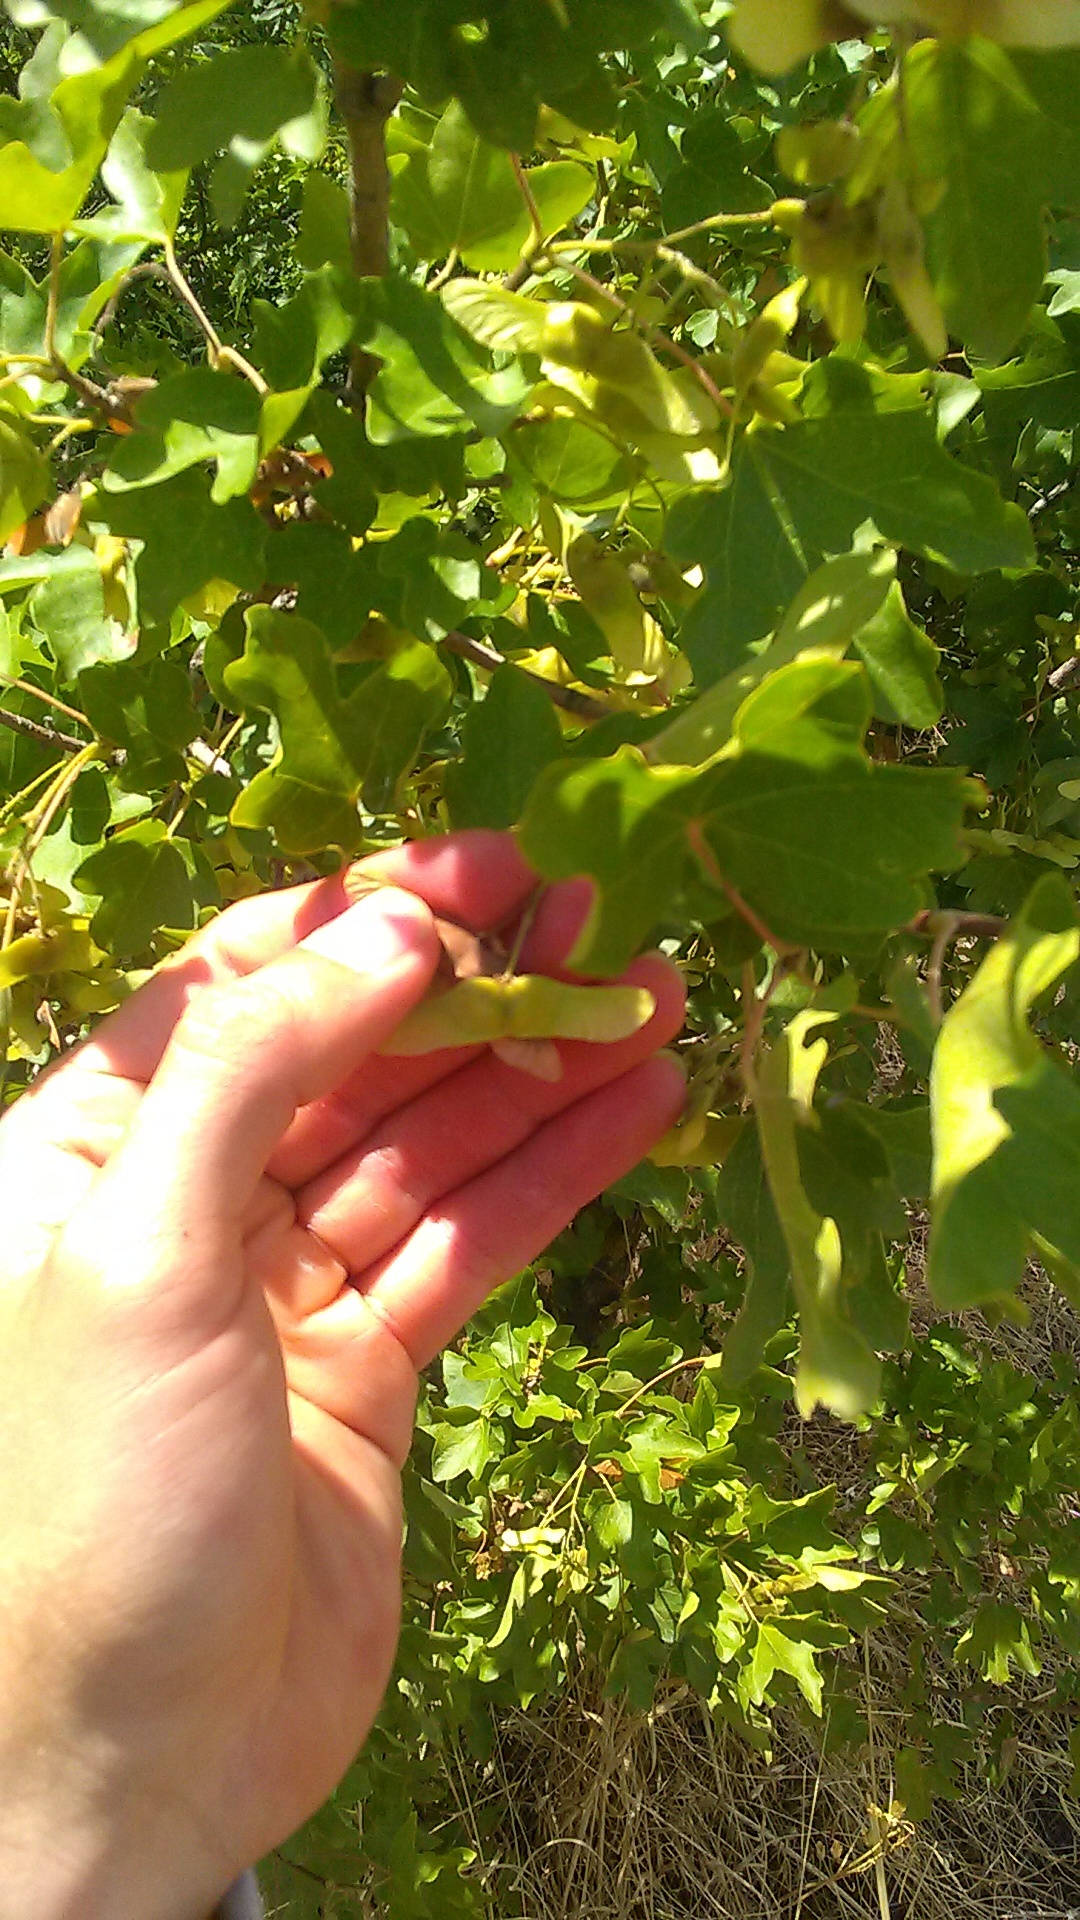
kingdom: Plantae
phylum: Tracheophyta
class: Magnoliopsida
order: Sapindales
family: Sapindaceae
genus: Acer
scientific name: Acer campestre
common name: Field maple
